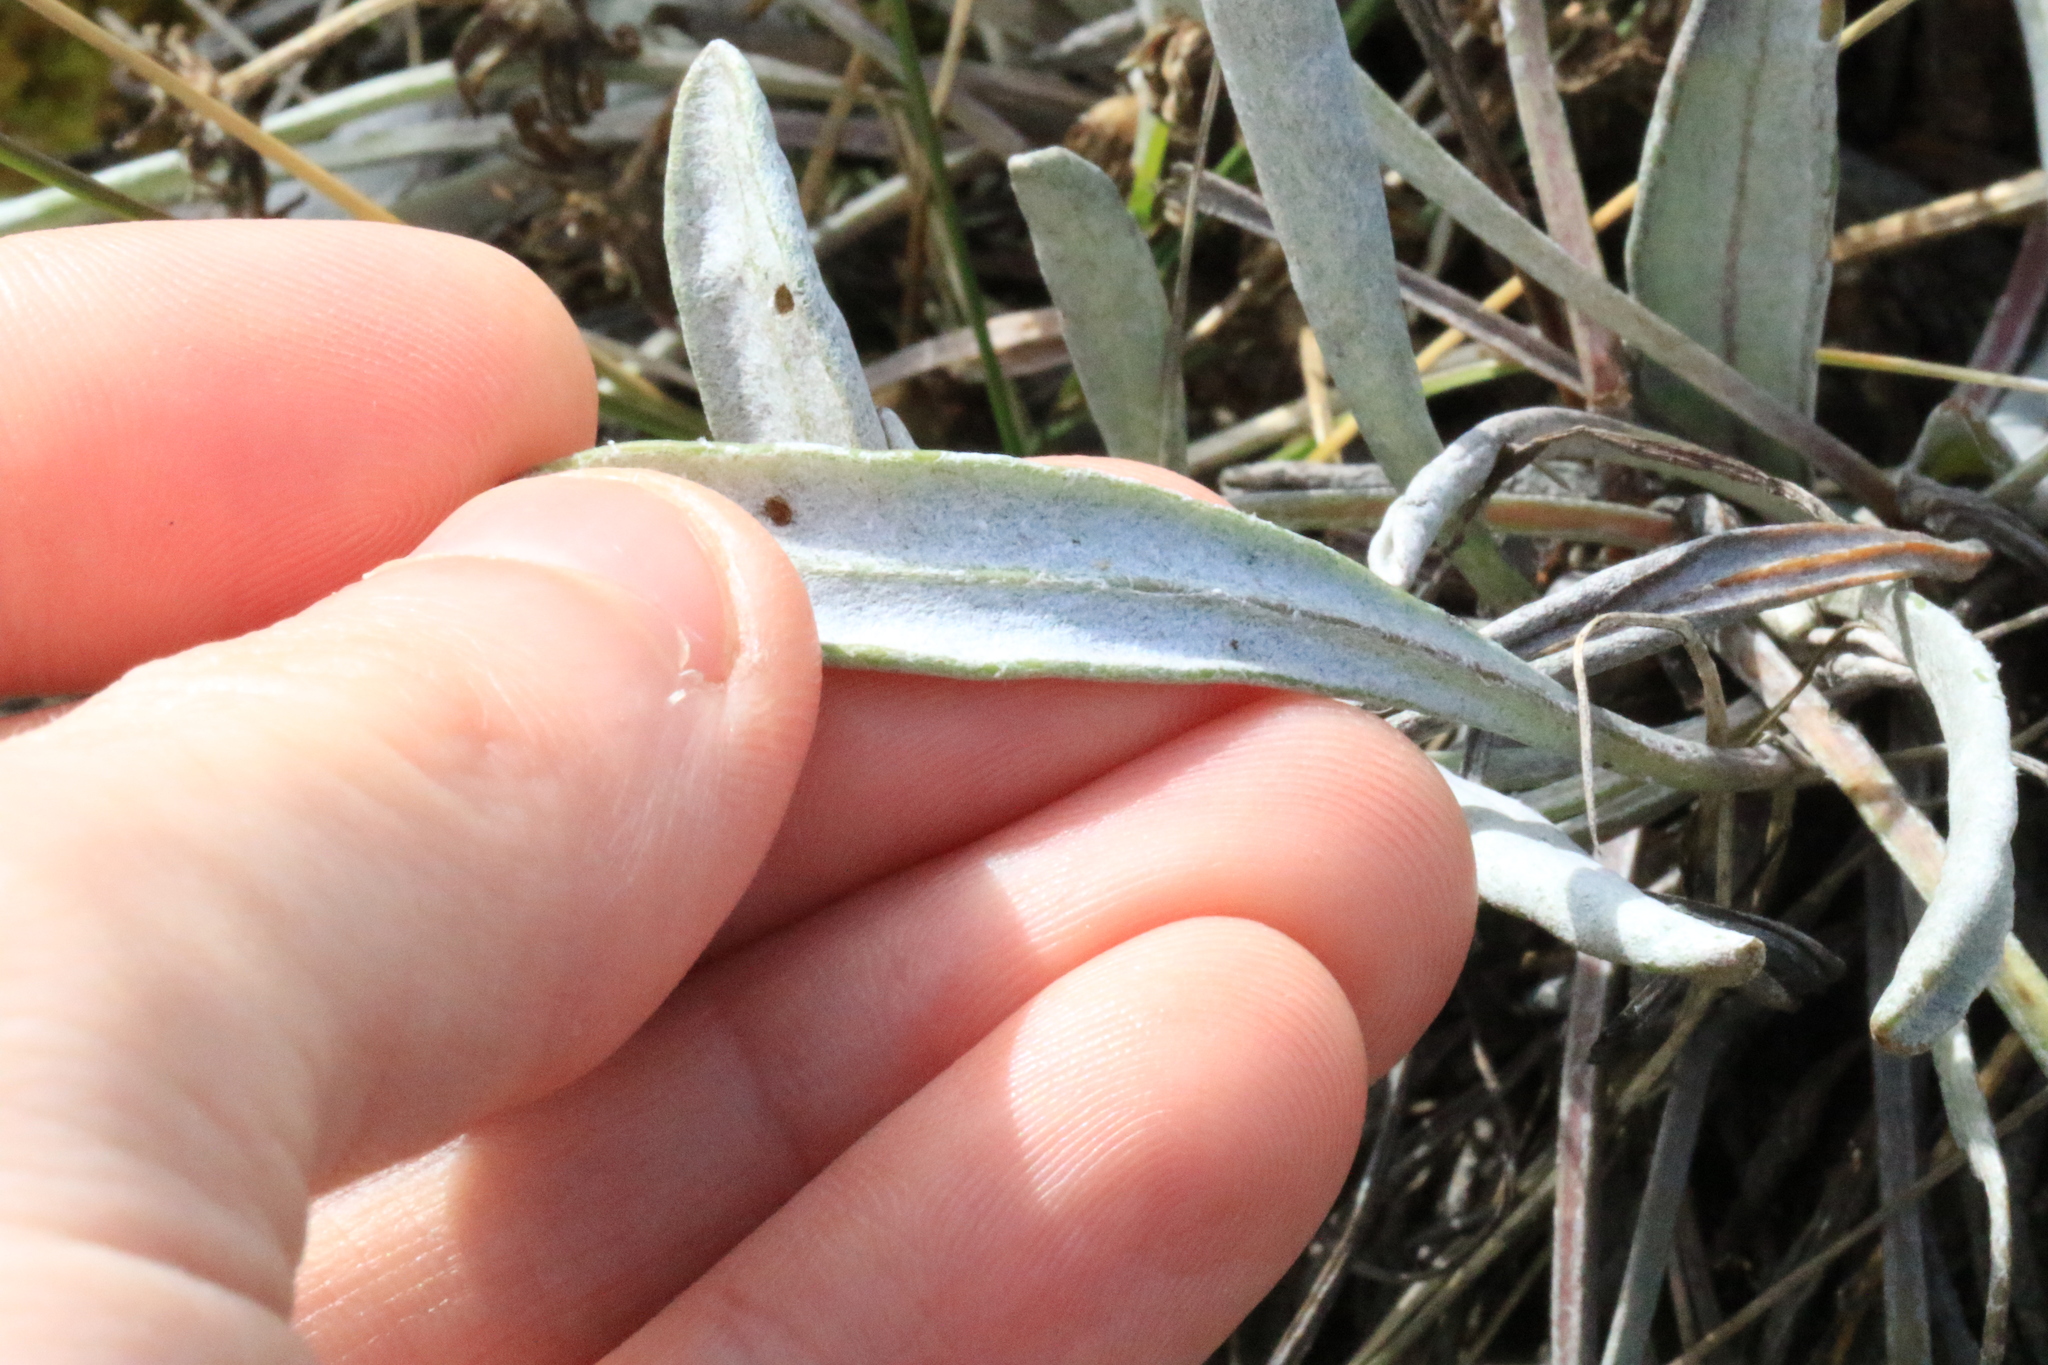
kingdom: Plantae
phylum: Tracheophyta
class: Magnoliopsida
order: Asterales
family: Asteraceae
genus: Packera
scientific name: Packera macounii
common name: Macoun's groundsel
